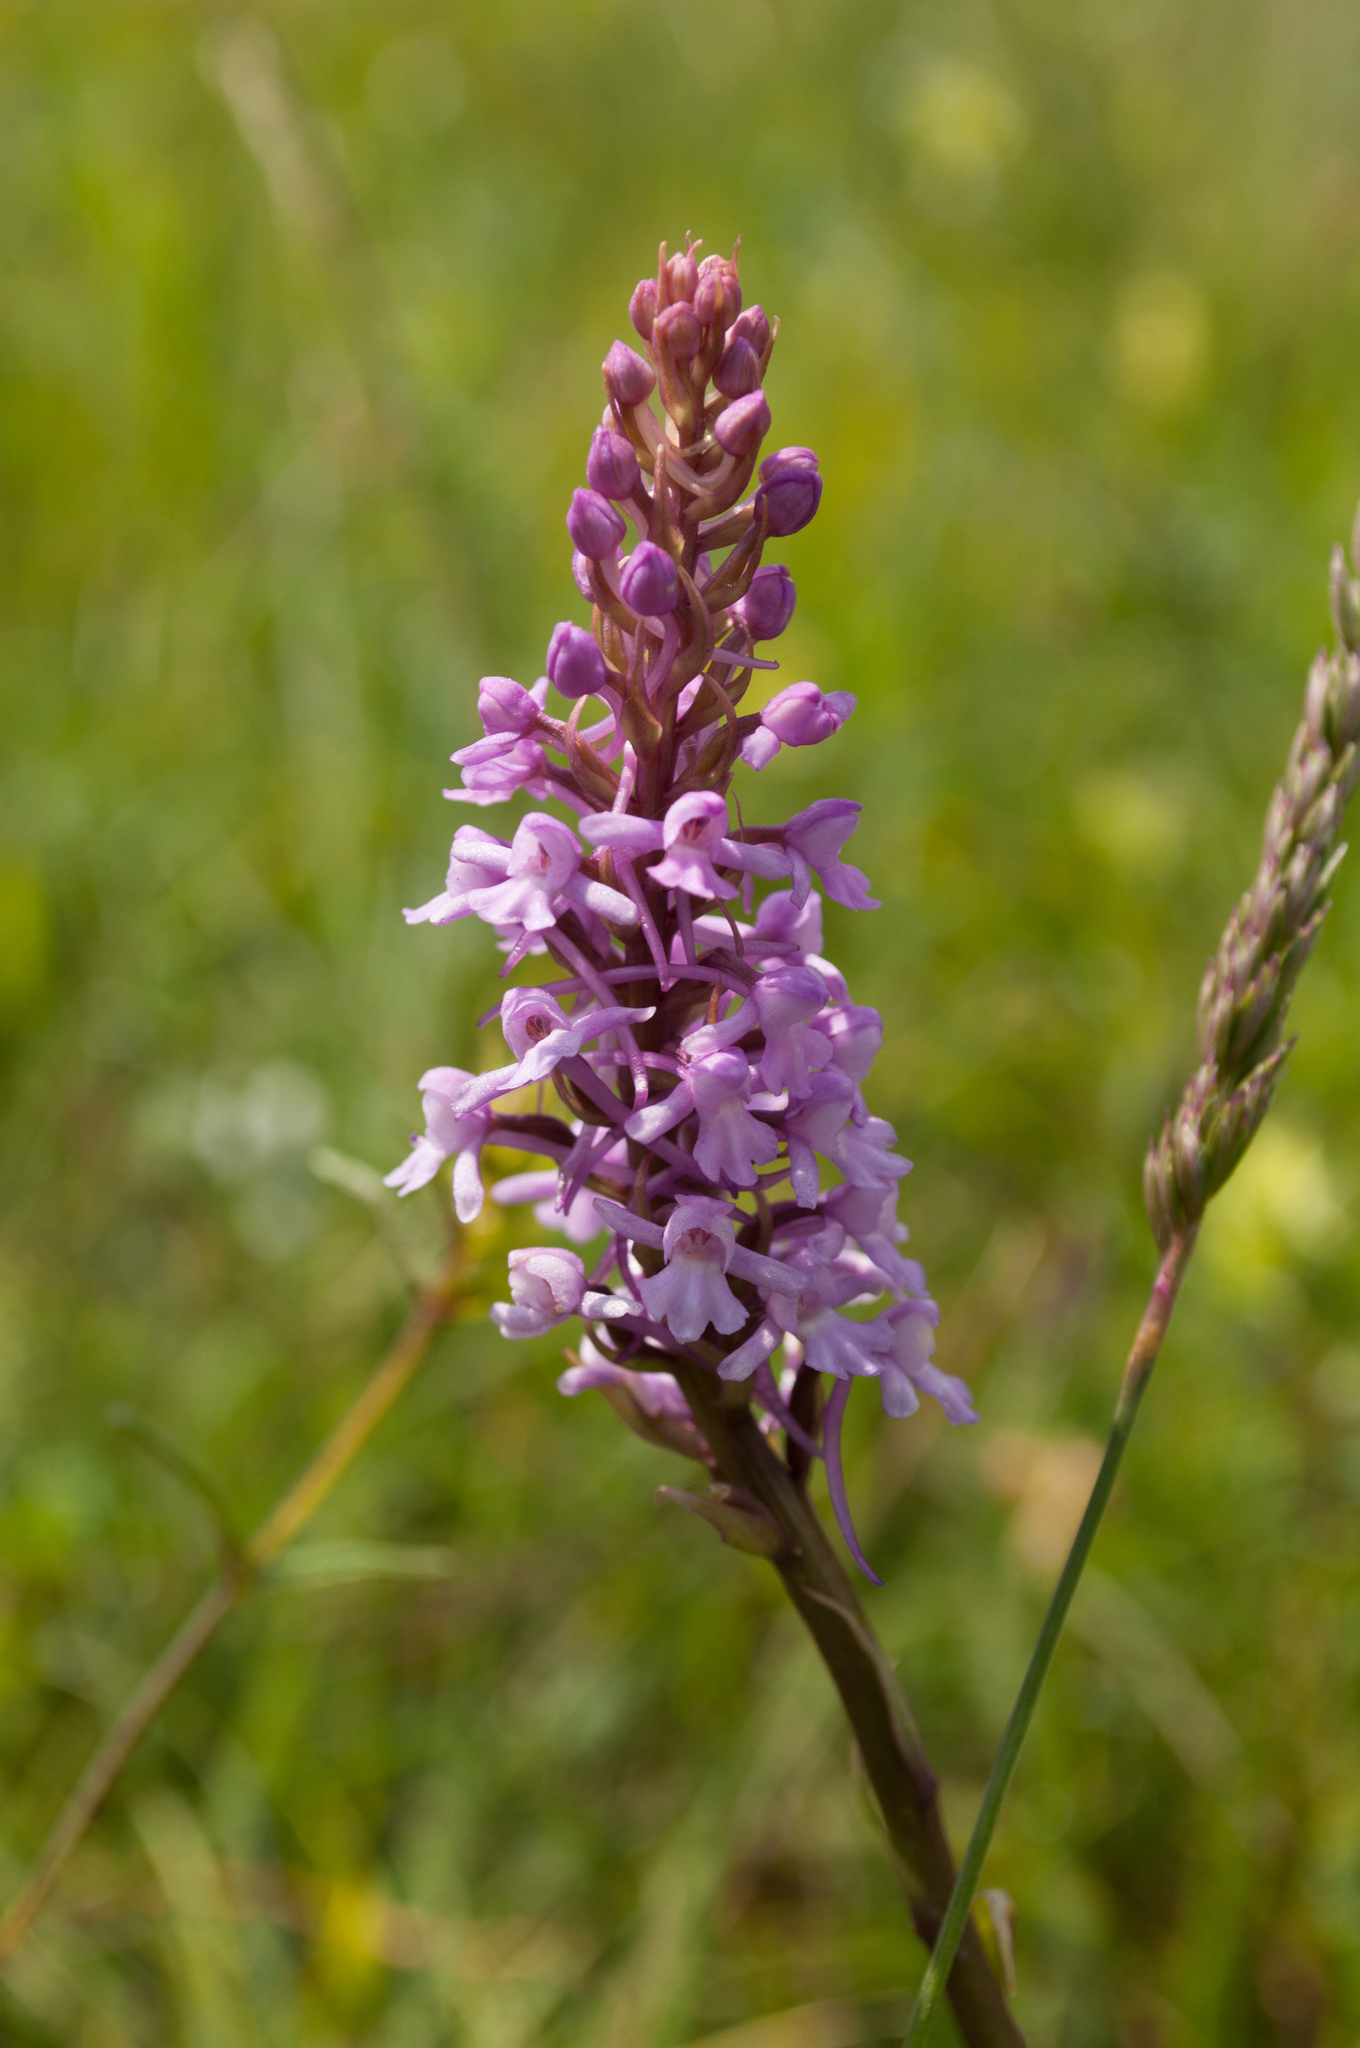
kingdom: Plantae
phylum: Tracheophyta
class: Liliopsida
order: Asparagales
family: Orchidaceae
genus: Gymnadenia
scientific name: Gymnadenia conopsea
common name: Fragrant orchid
